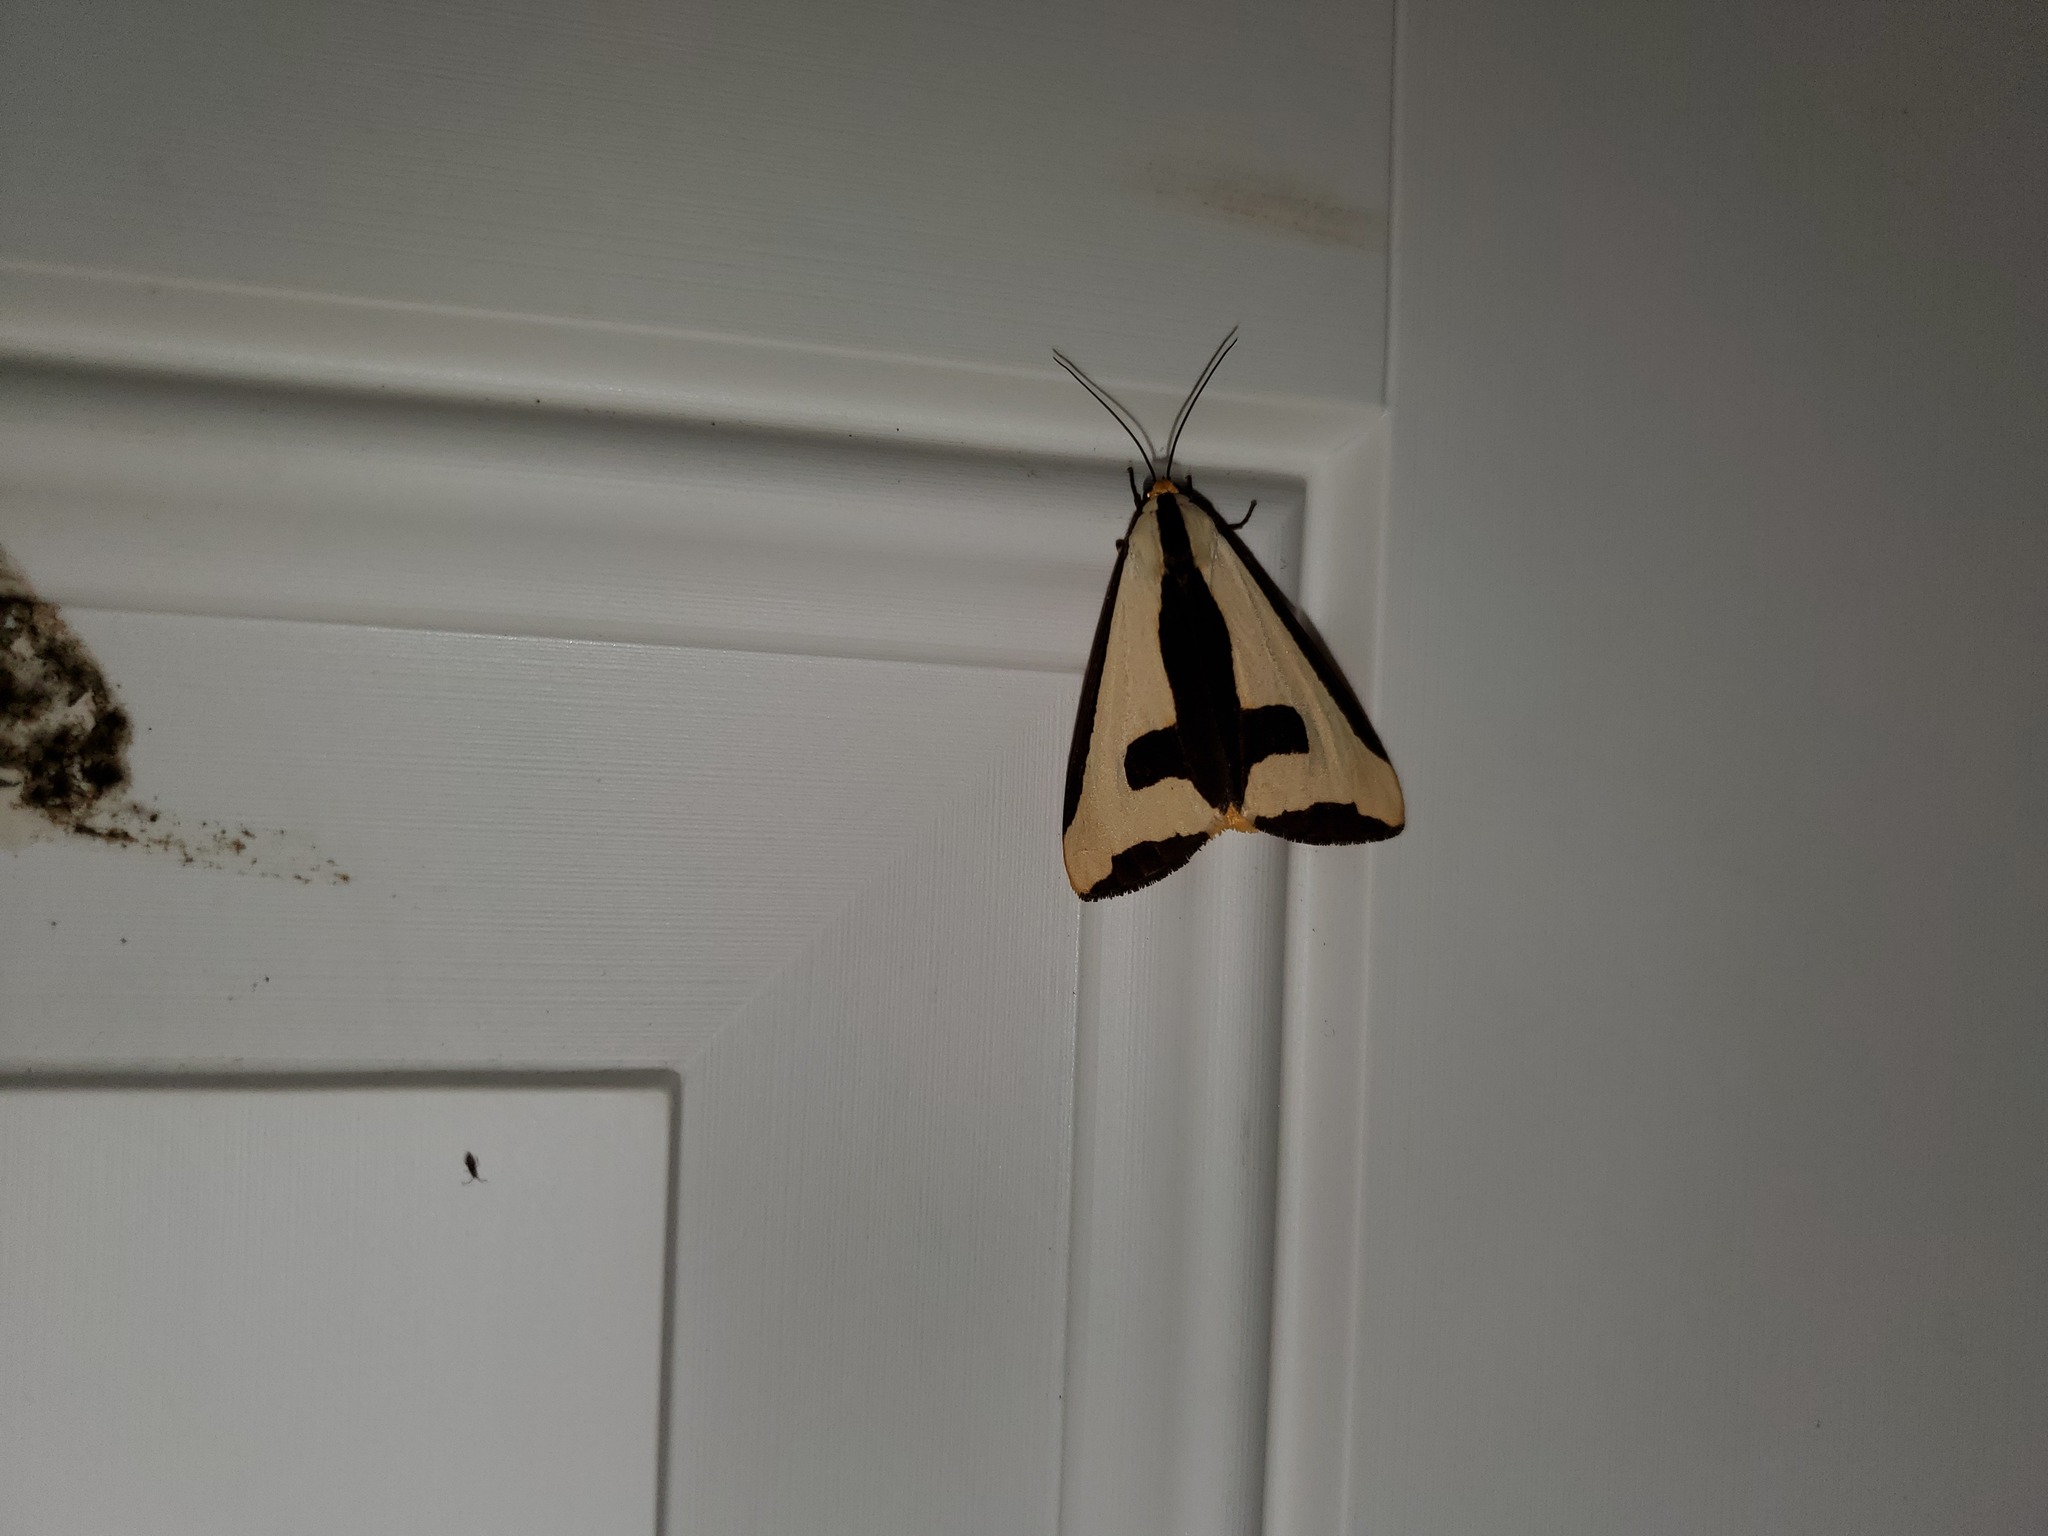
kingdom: Animalia
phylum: Arthropoda
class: Insecta
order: Lepidoptera
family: Erebidae
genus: Haploa
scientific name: Haploa clymene
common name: Clymene moth
